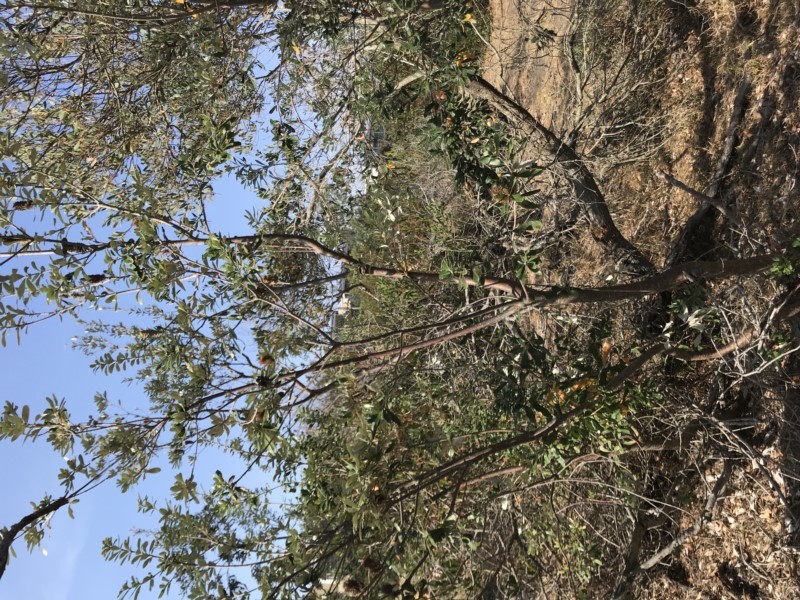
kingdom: Plantae
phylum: Tracheophyta
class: Magnoliopsida
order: Proteales
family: Proteaceae
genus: Banksia
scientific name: Banksia integrifolia
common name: White-honeysuckle
